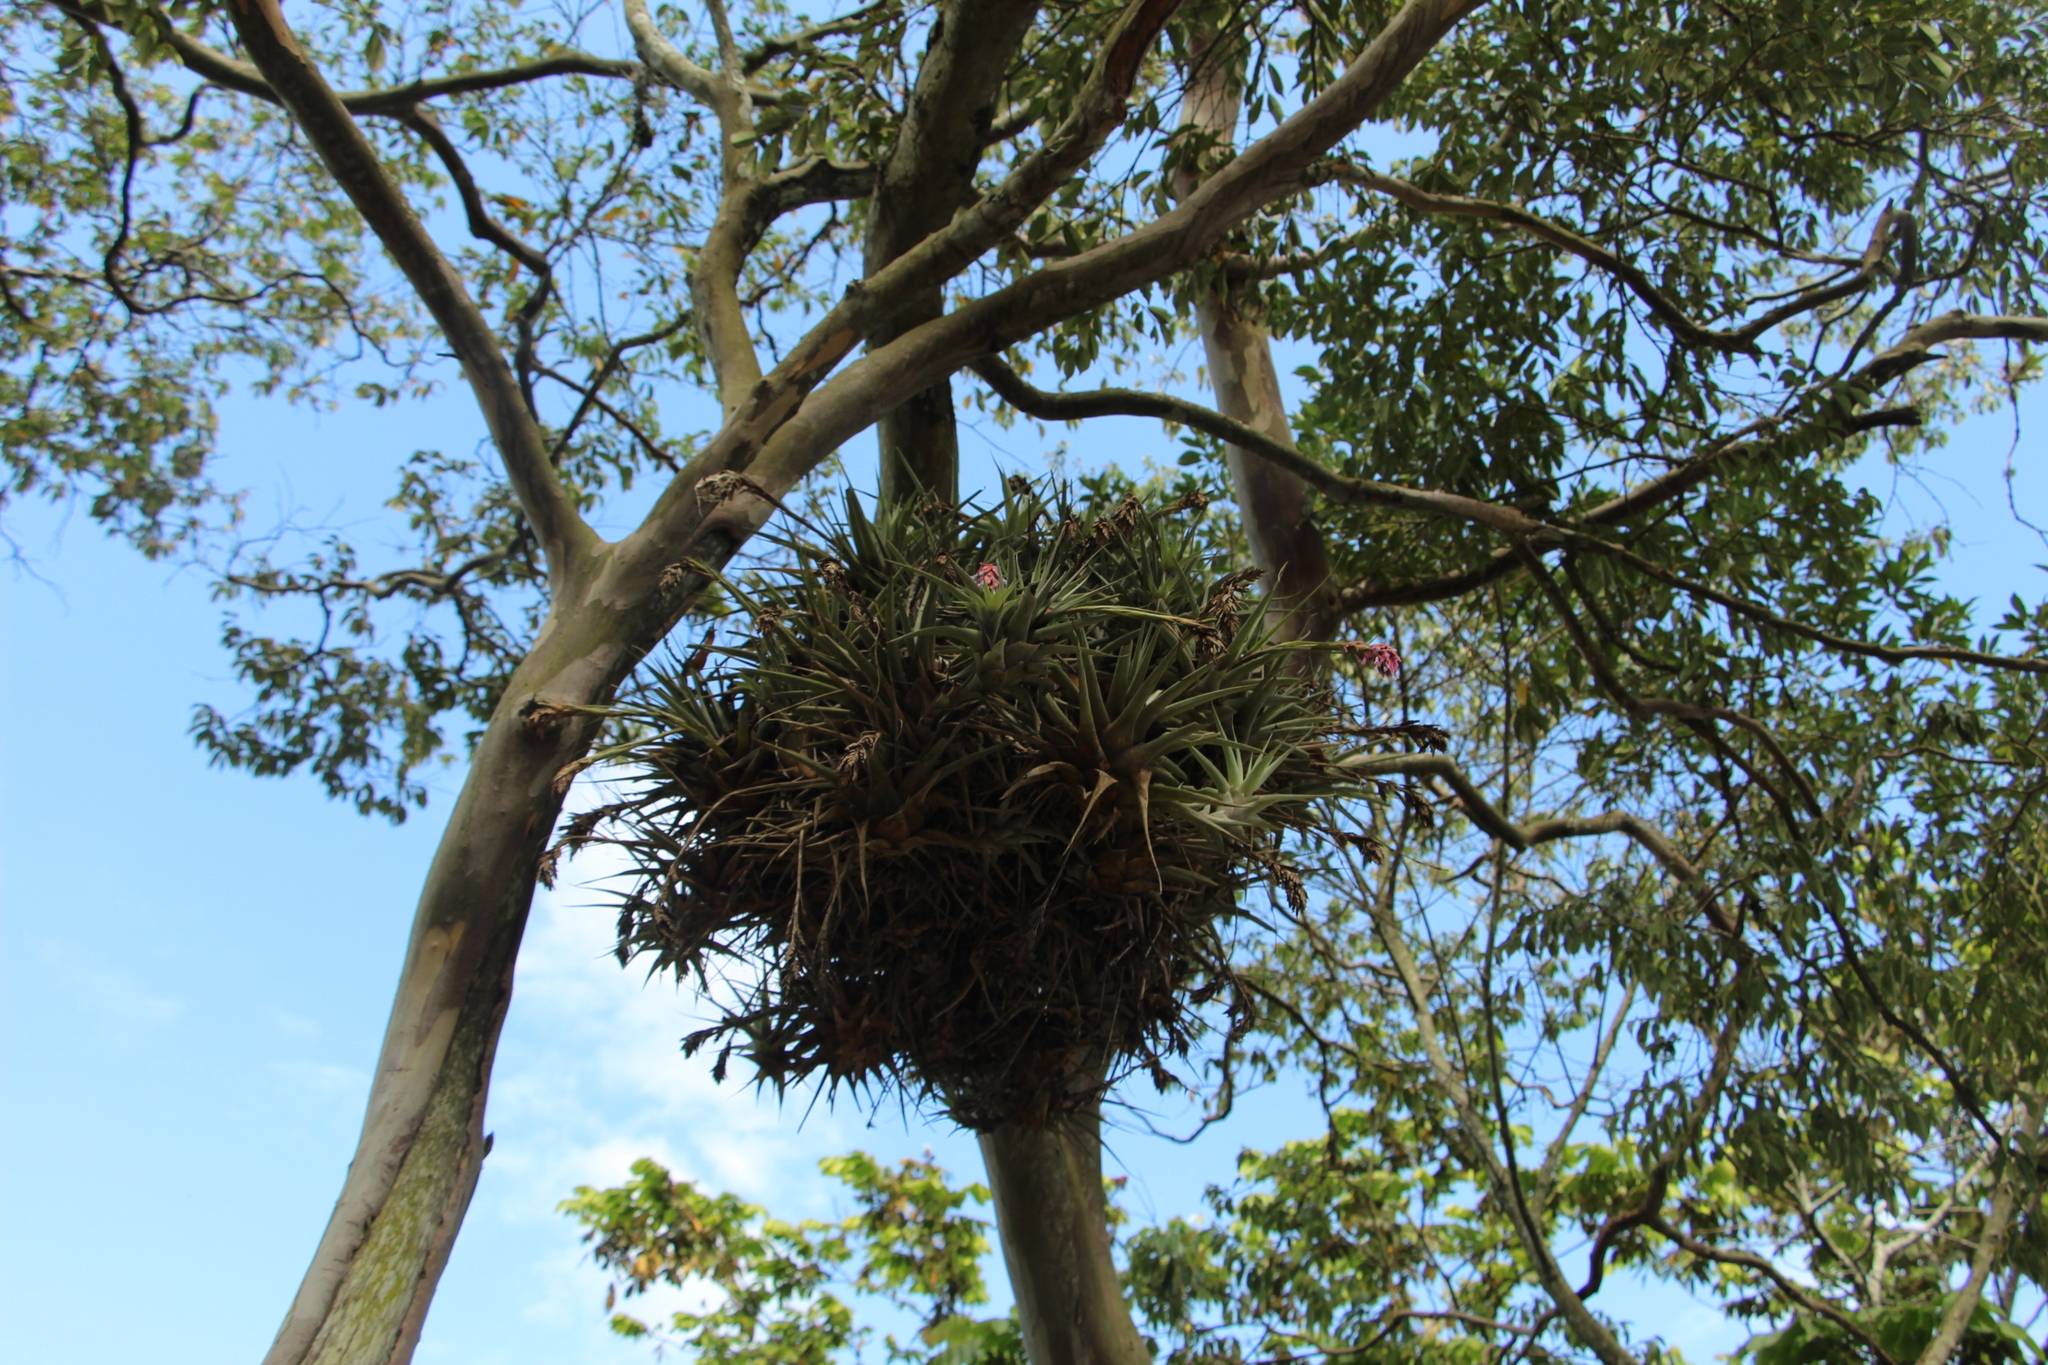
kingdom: Plantae
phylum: Tracheophyta
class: Liliopsida
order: Poales
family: Bromeliaceae
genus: Vriesea
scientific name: Vriesea myriantha
